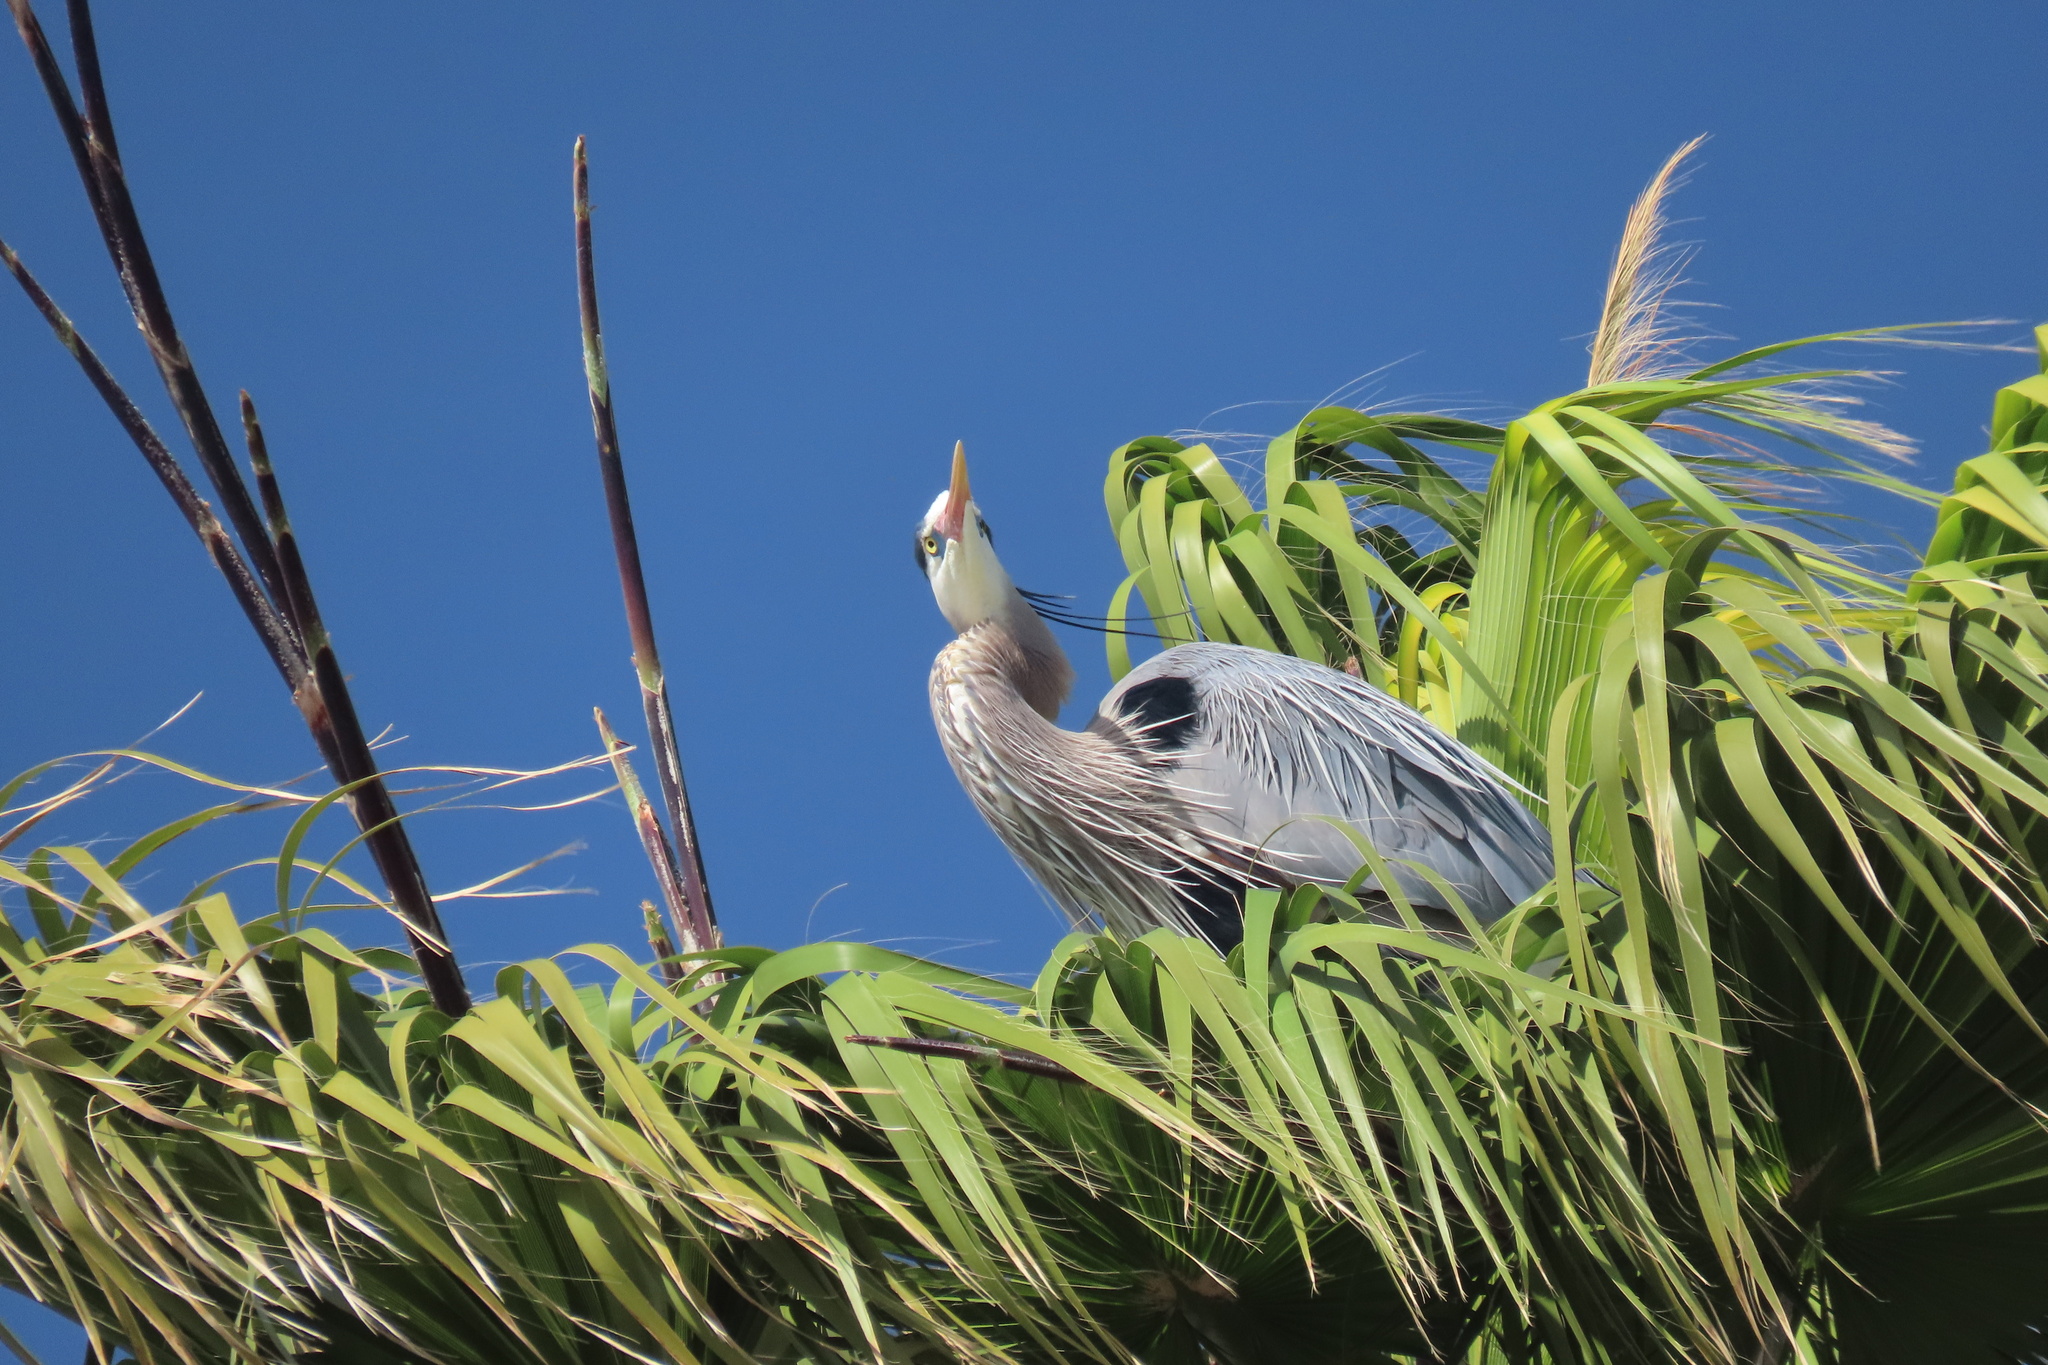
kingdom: Animalia
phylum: Chordata
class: Aves
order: Pelecaniformes
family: Ardeidae
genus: Ardea
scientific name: Ardea herodias
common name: Great blue heron
